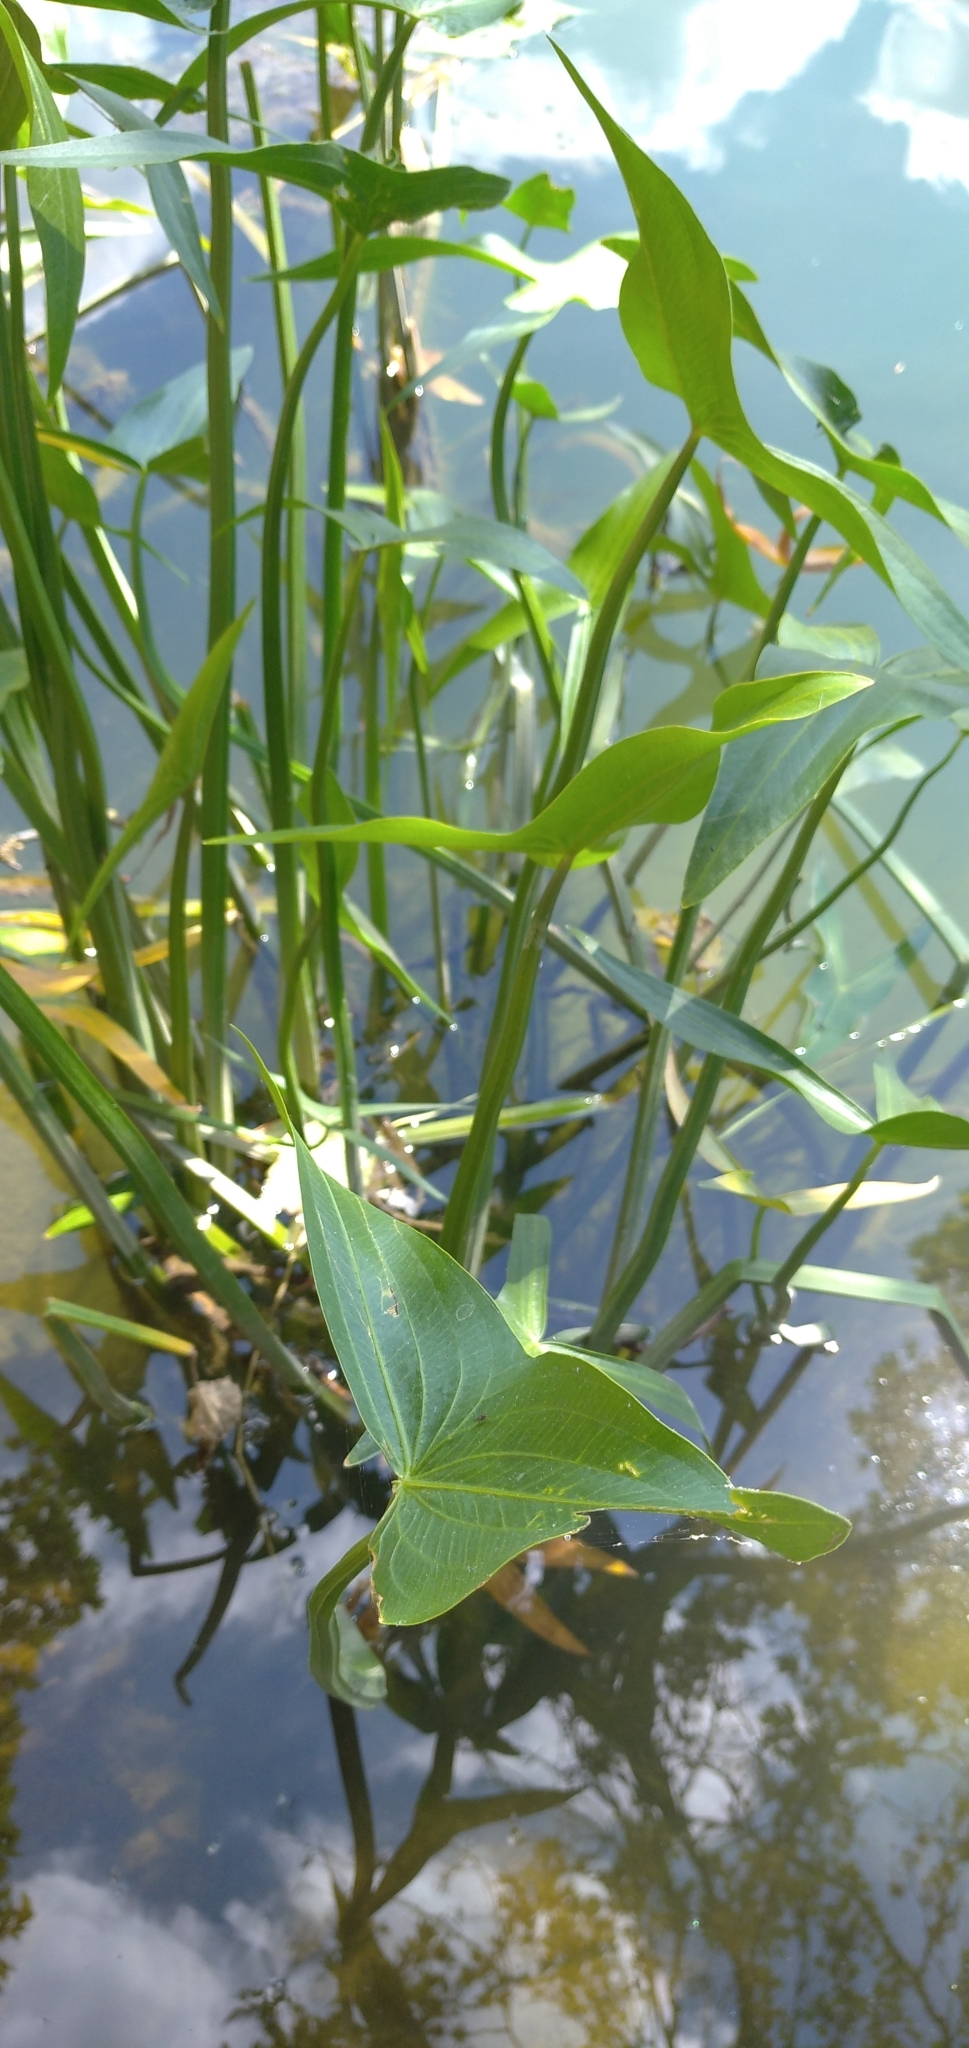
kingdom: Plantae
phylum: Tracheophyta
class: Liliopsida
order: Alismatales
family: Alismataceae
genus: Sagittaria
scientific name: Sagittaria sagittifolia
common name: Arrowhead
